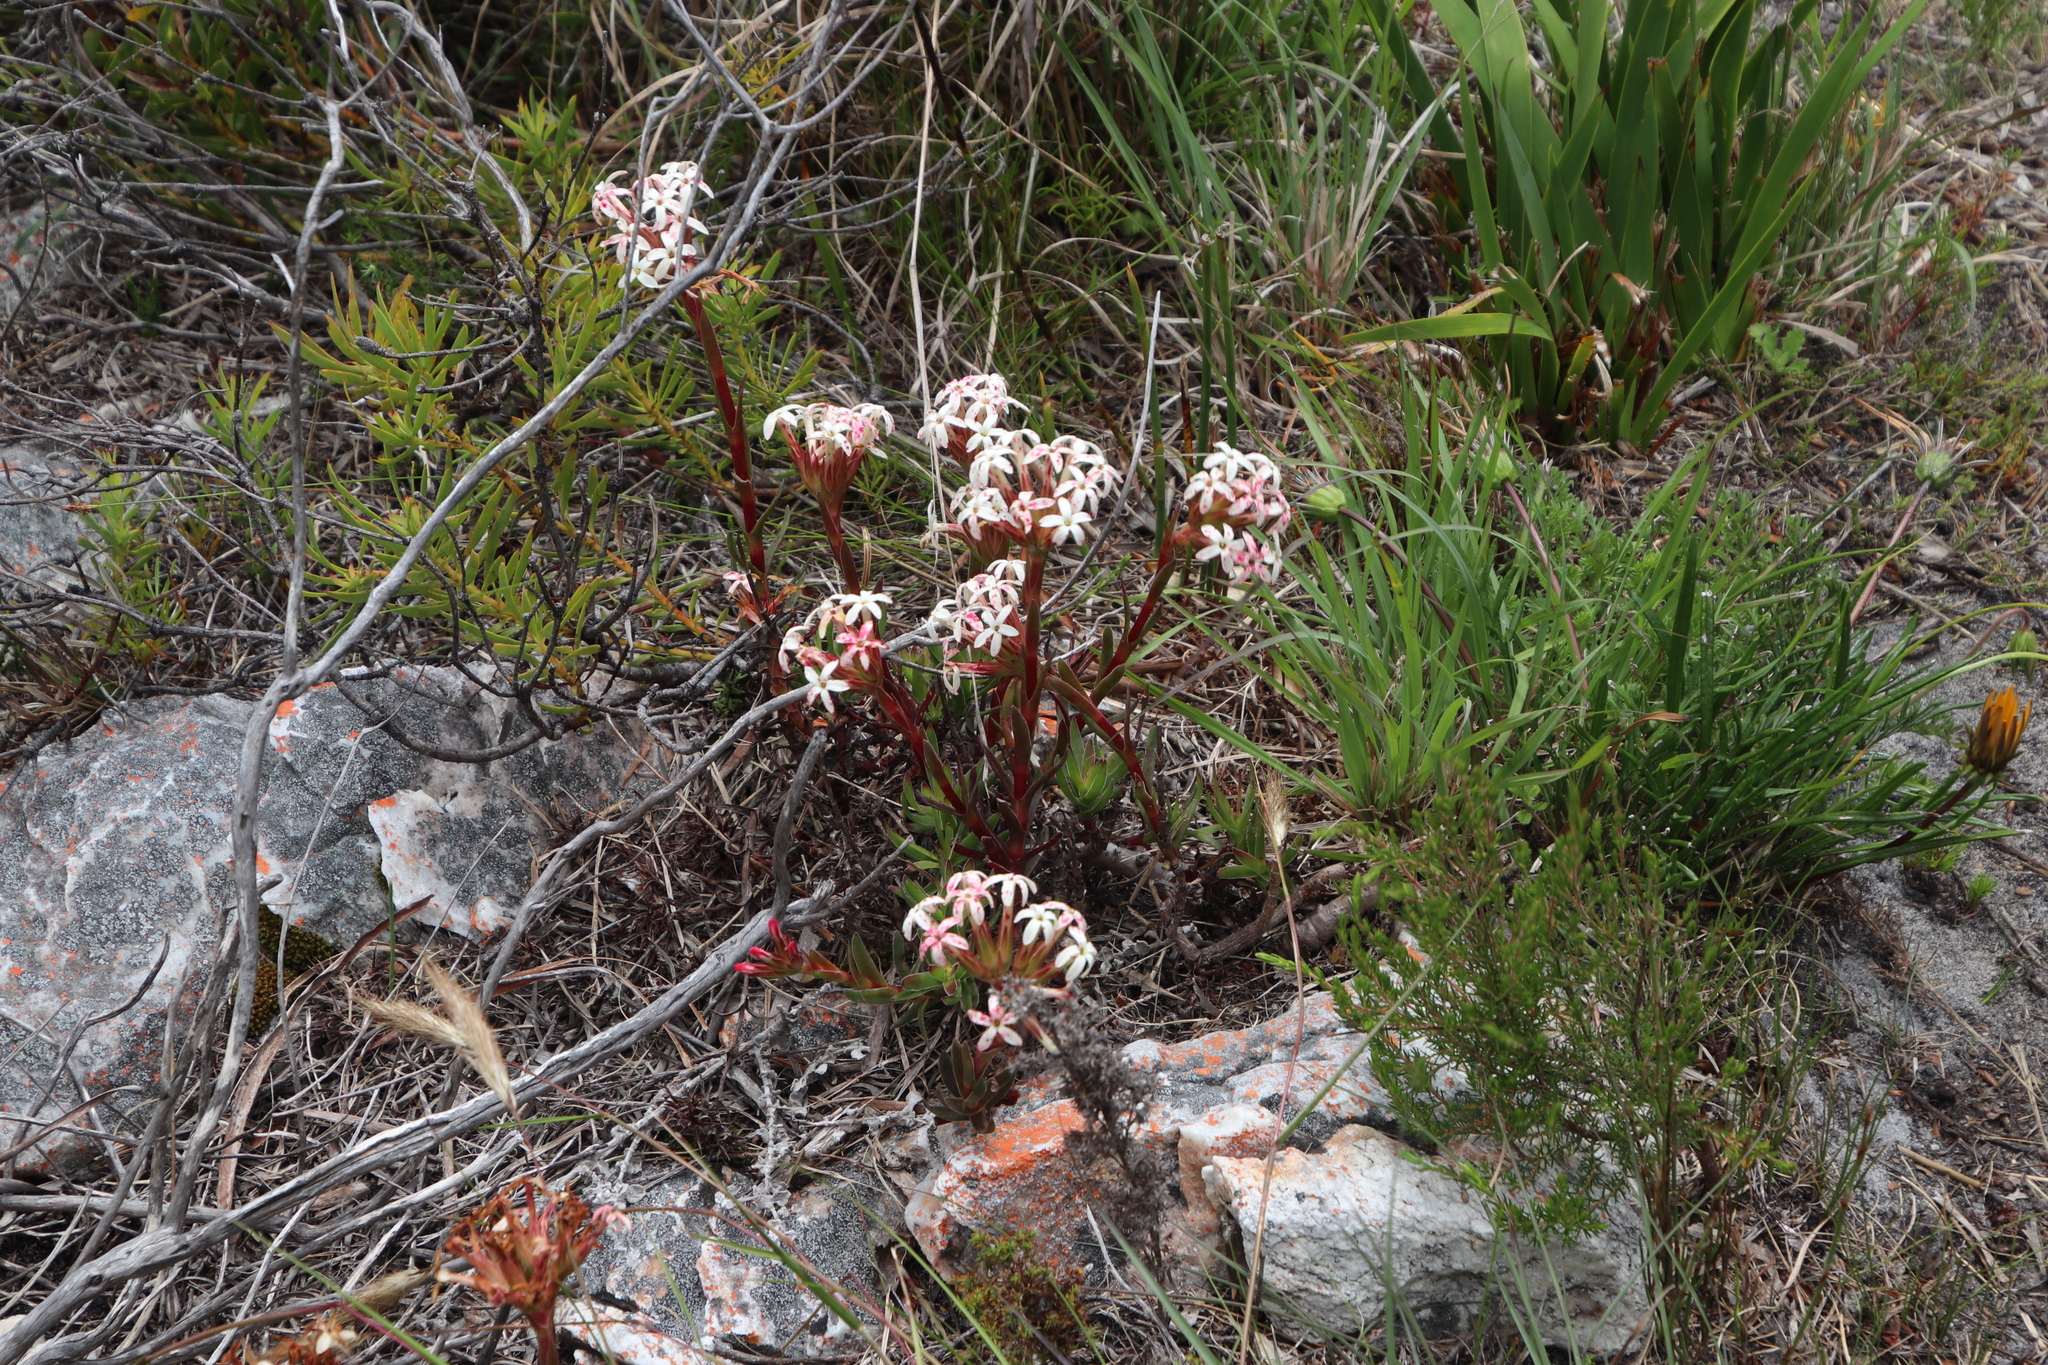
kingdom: Plantae
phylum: Tracheophyta
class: Magnoliopsida
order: Saxifragales
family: Crassulaceae
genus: Crassula
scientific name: Crassula fascicularis
